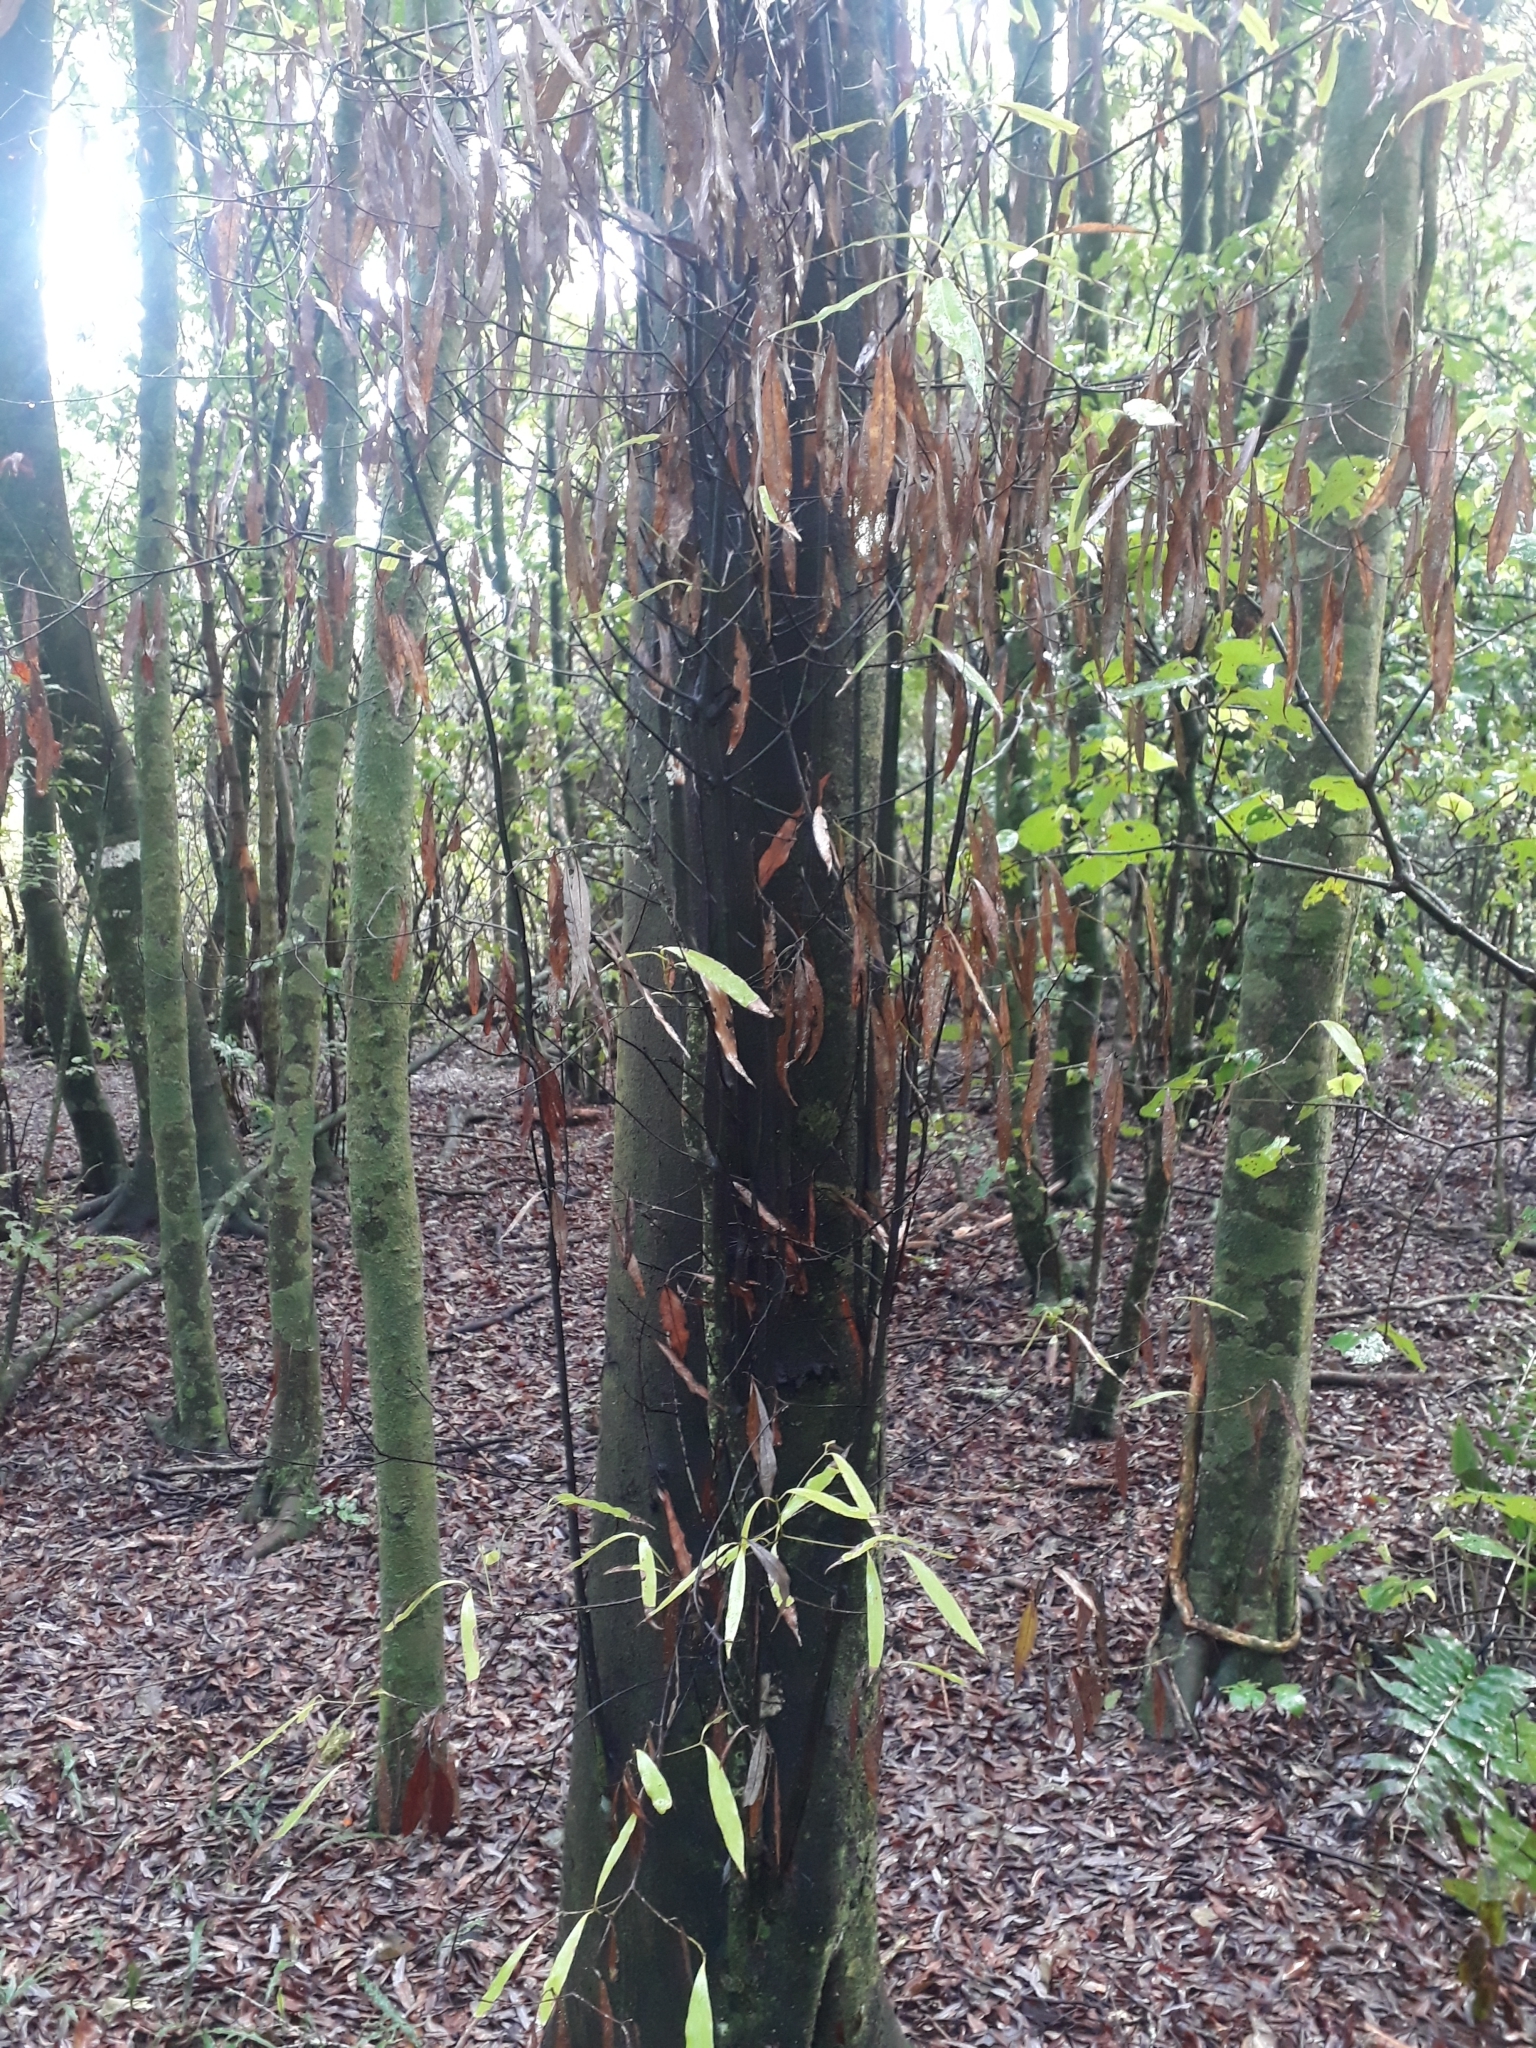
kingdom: Plantae
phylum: Tracheophyta
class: Magnoliopsida
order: Laurales
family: Lauraceae
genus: Beilschmiedia
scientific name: Beilschmiedia tawa
